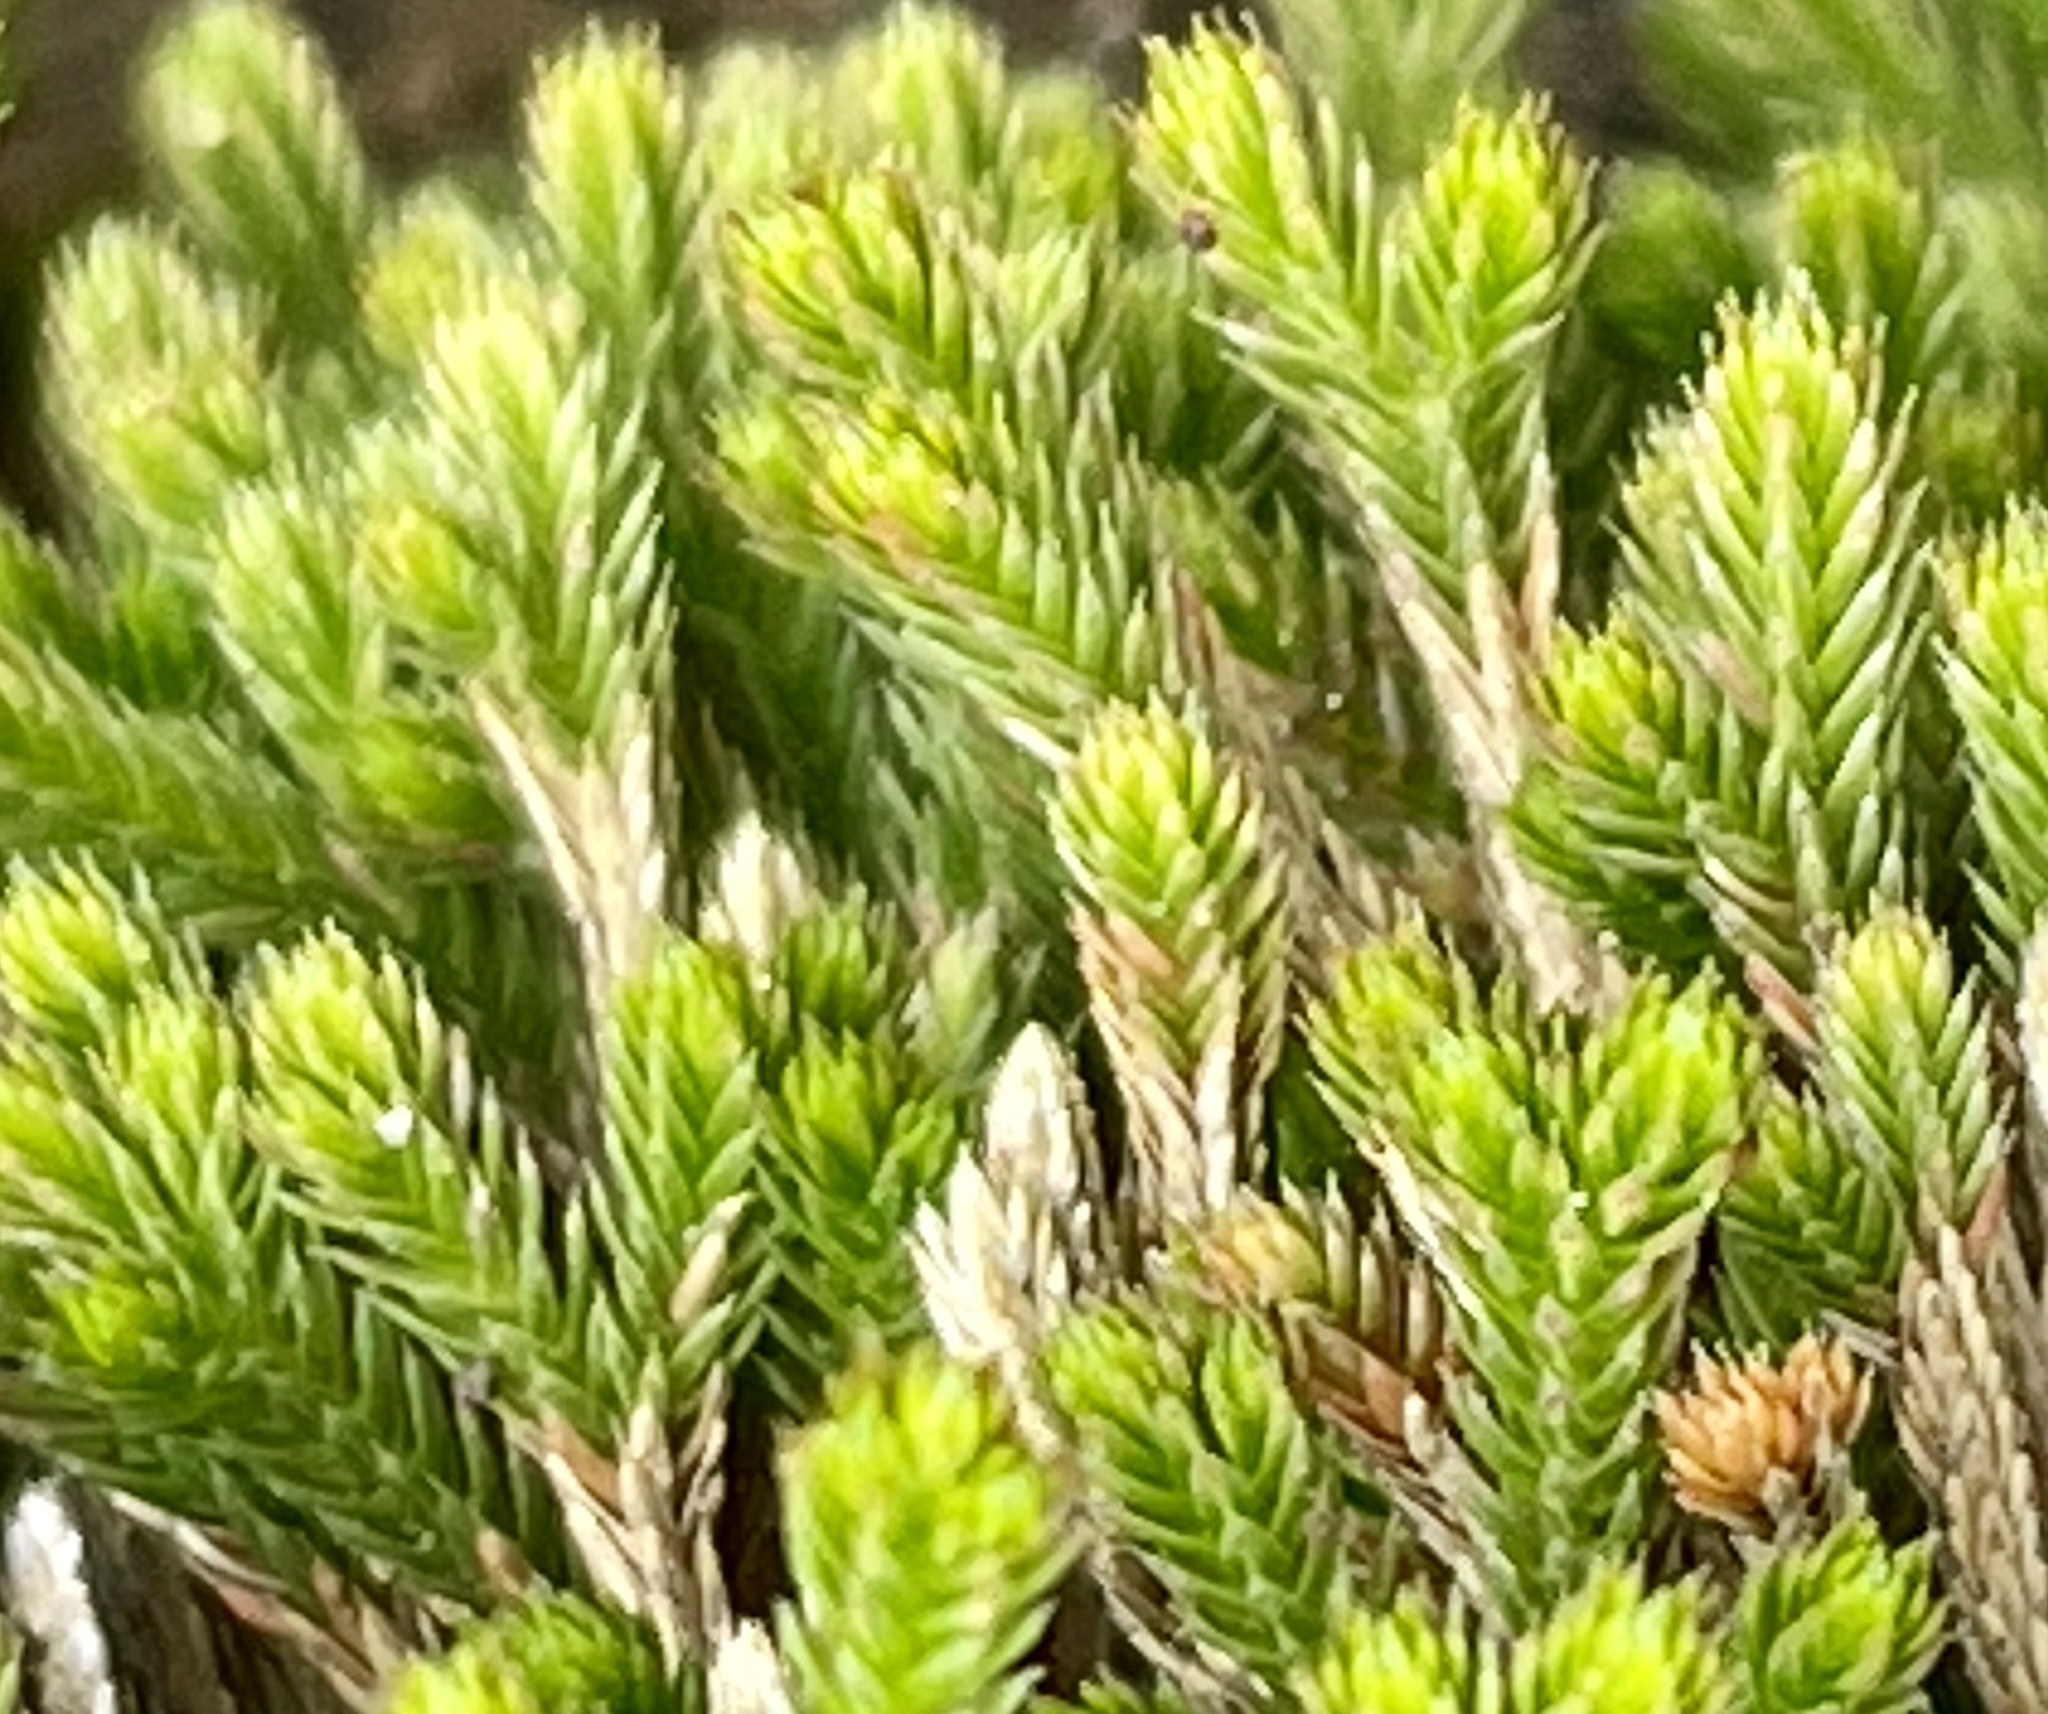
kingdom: Plantae
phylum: Tracheophyta
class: Lycopodiopsida
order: Selaginellales
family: Selaginellaceae
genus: Selaginella
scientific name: Selaginella bigelovii
